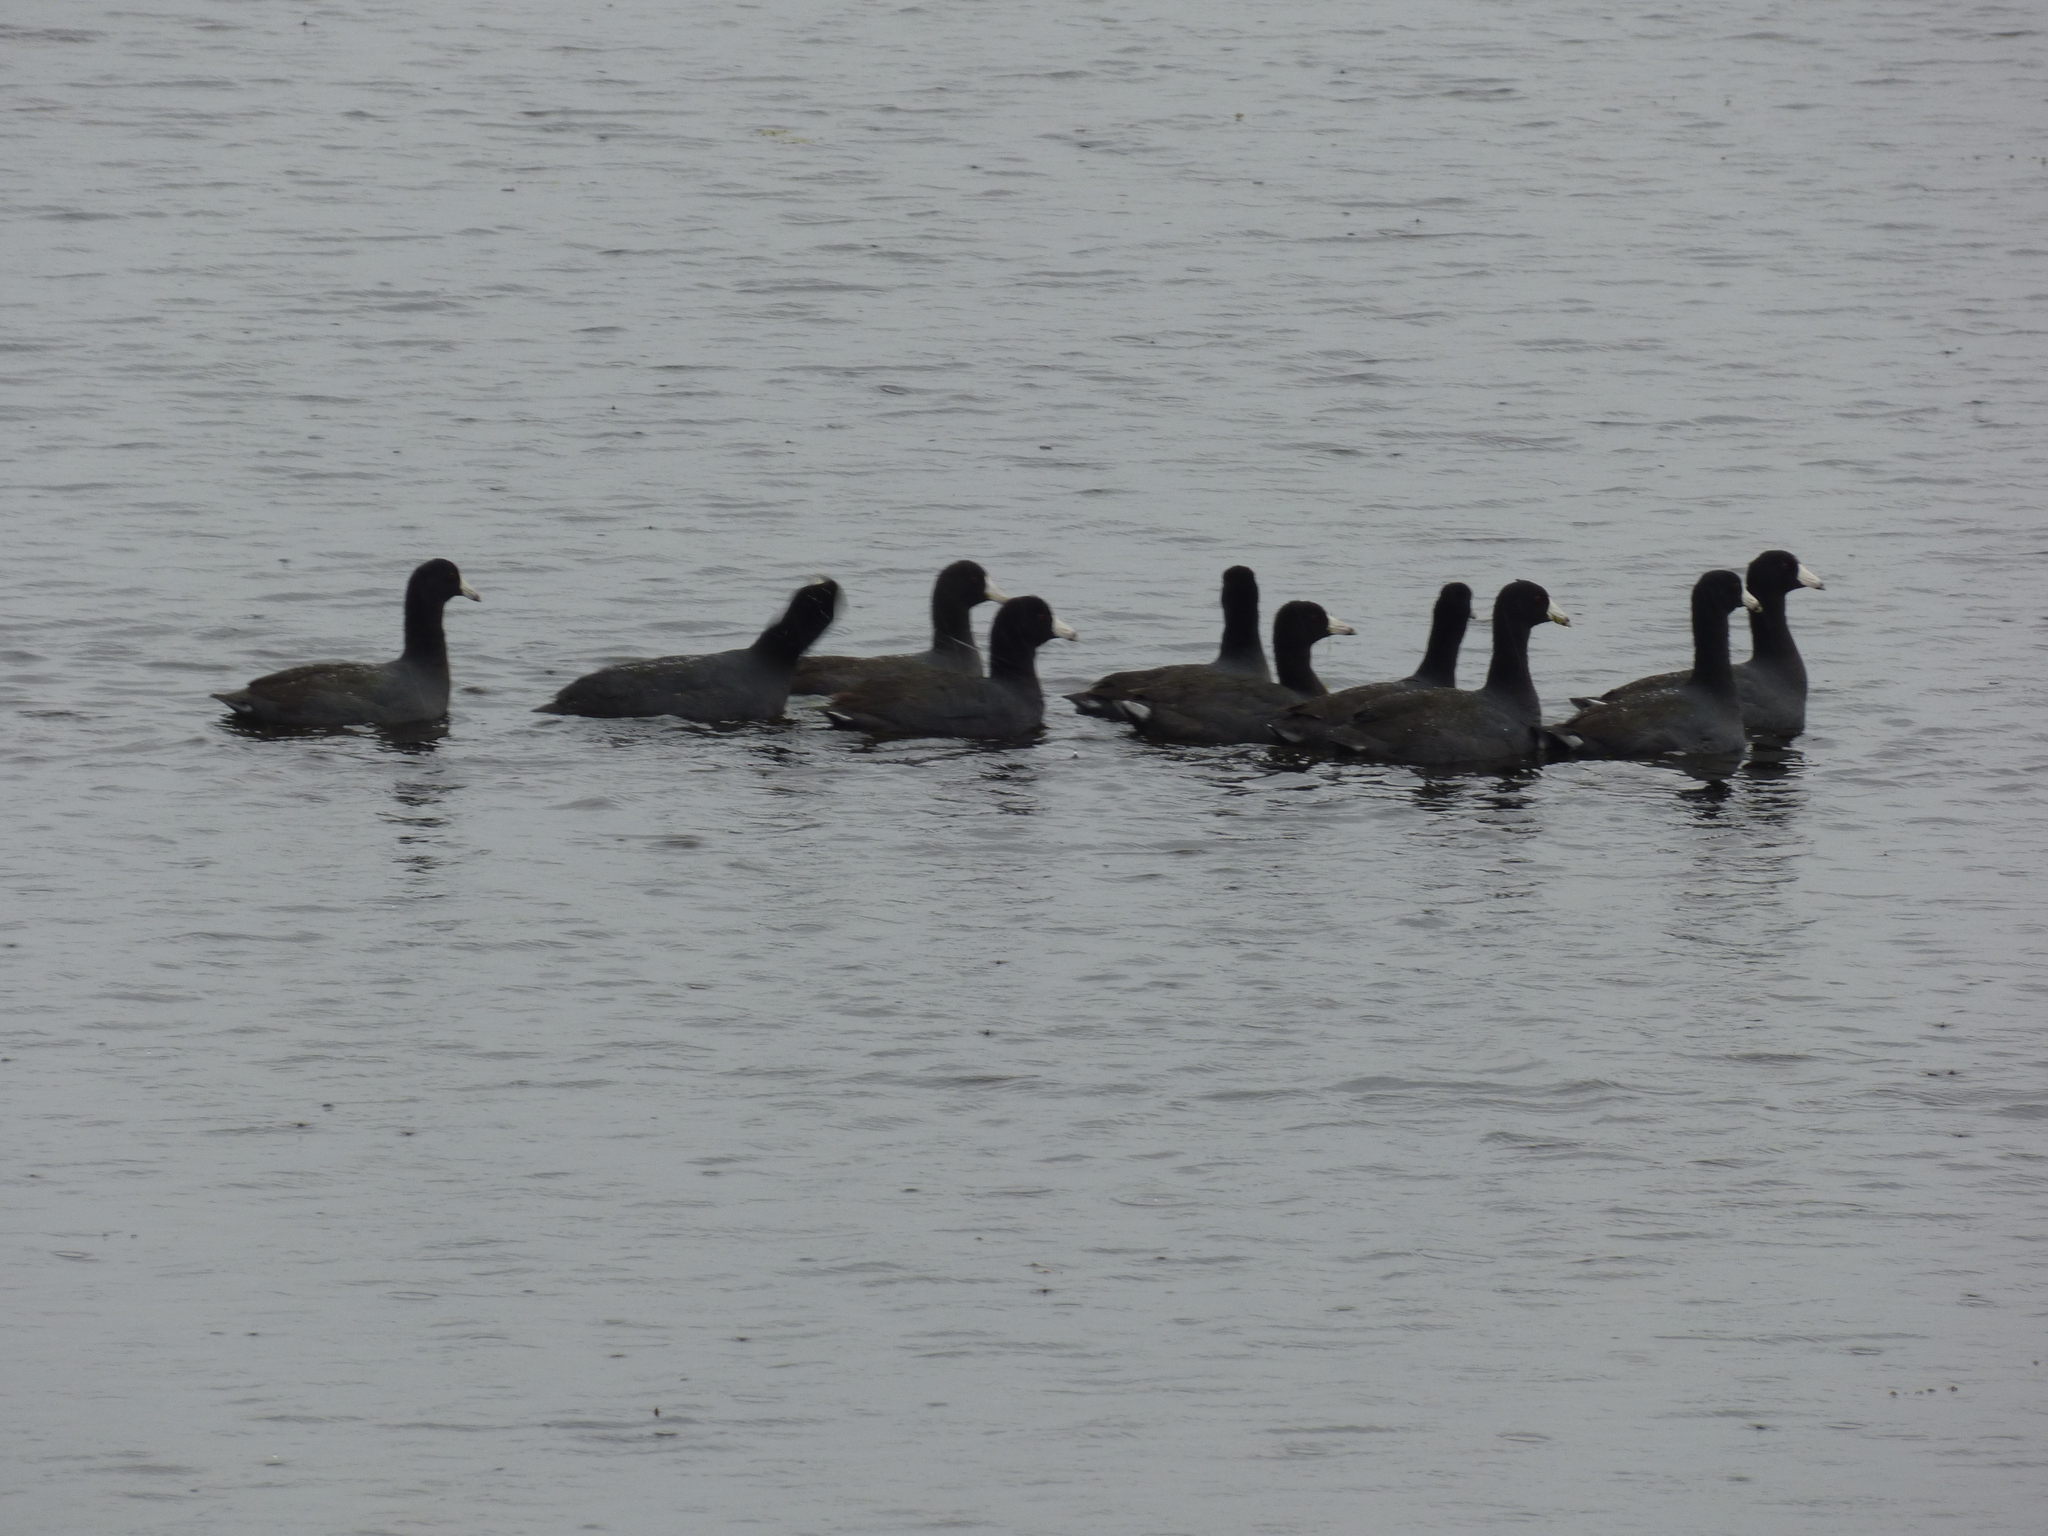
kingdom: Animalia
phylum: Chordata
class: Aves
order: Gruiformes
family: Rallidae
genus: Fulica
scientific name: Fulica americana
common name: American coot
